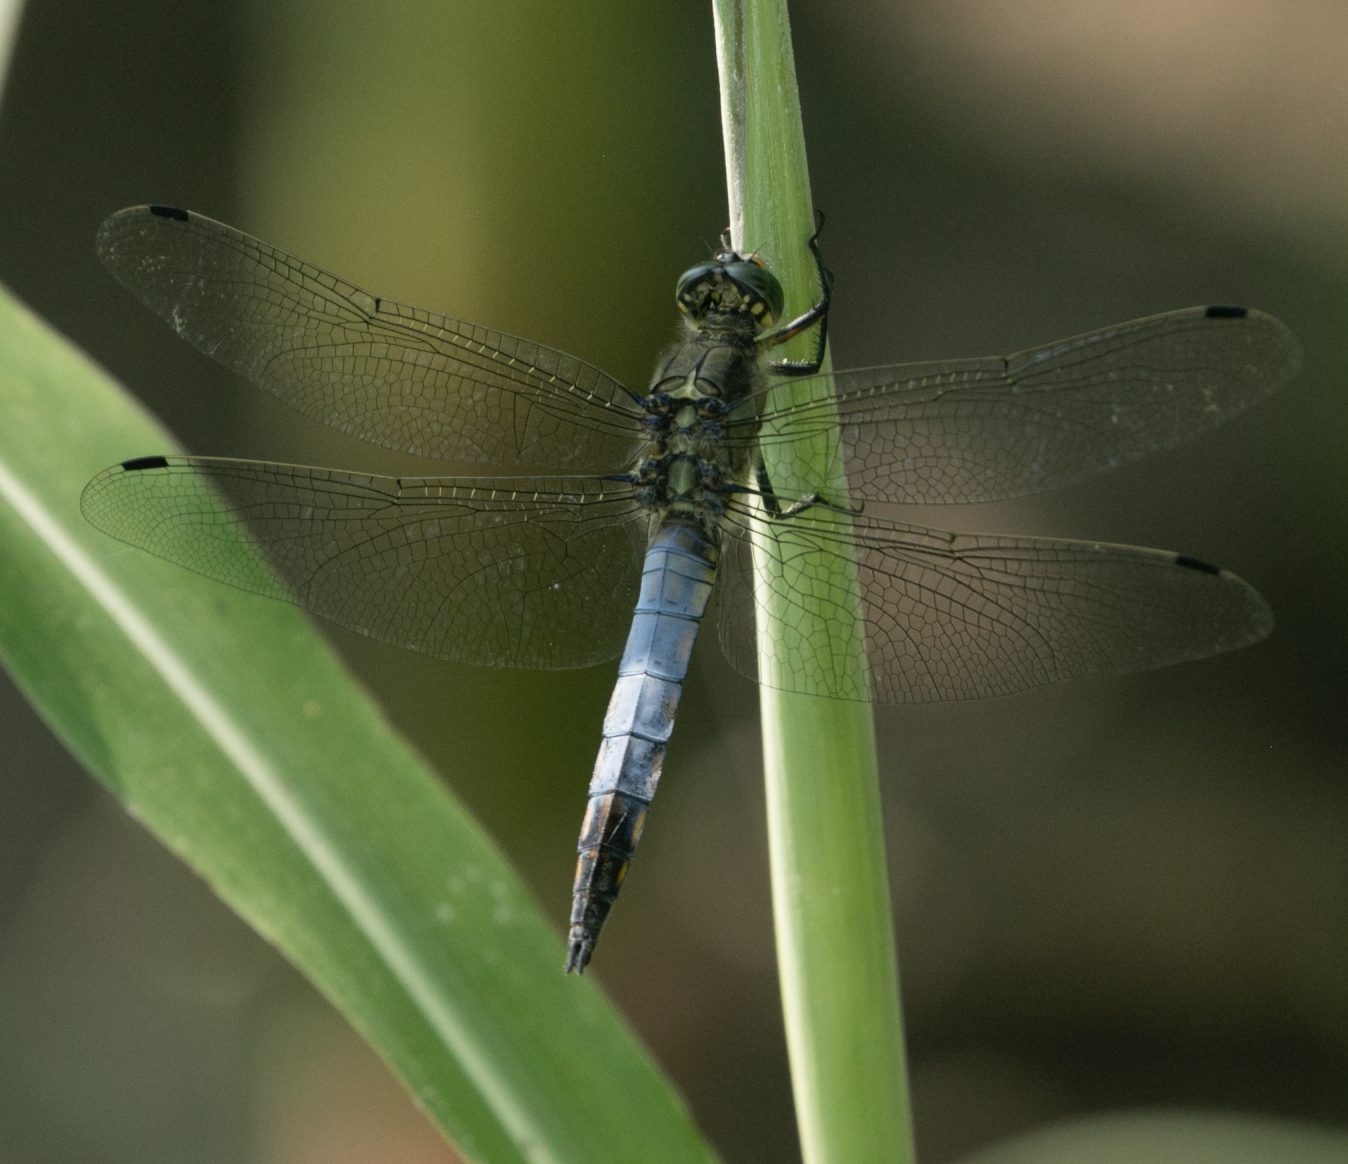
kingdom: Animalia
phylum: Arthropoda
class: Insecta
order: Odonata
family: Libellulidae
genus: Orthetrum
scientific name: Orthetrum cancellatum
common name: Black-tailed skimmer
